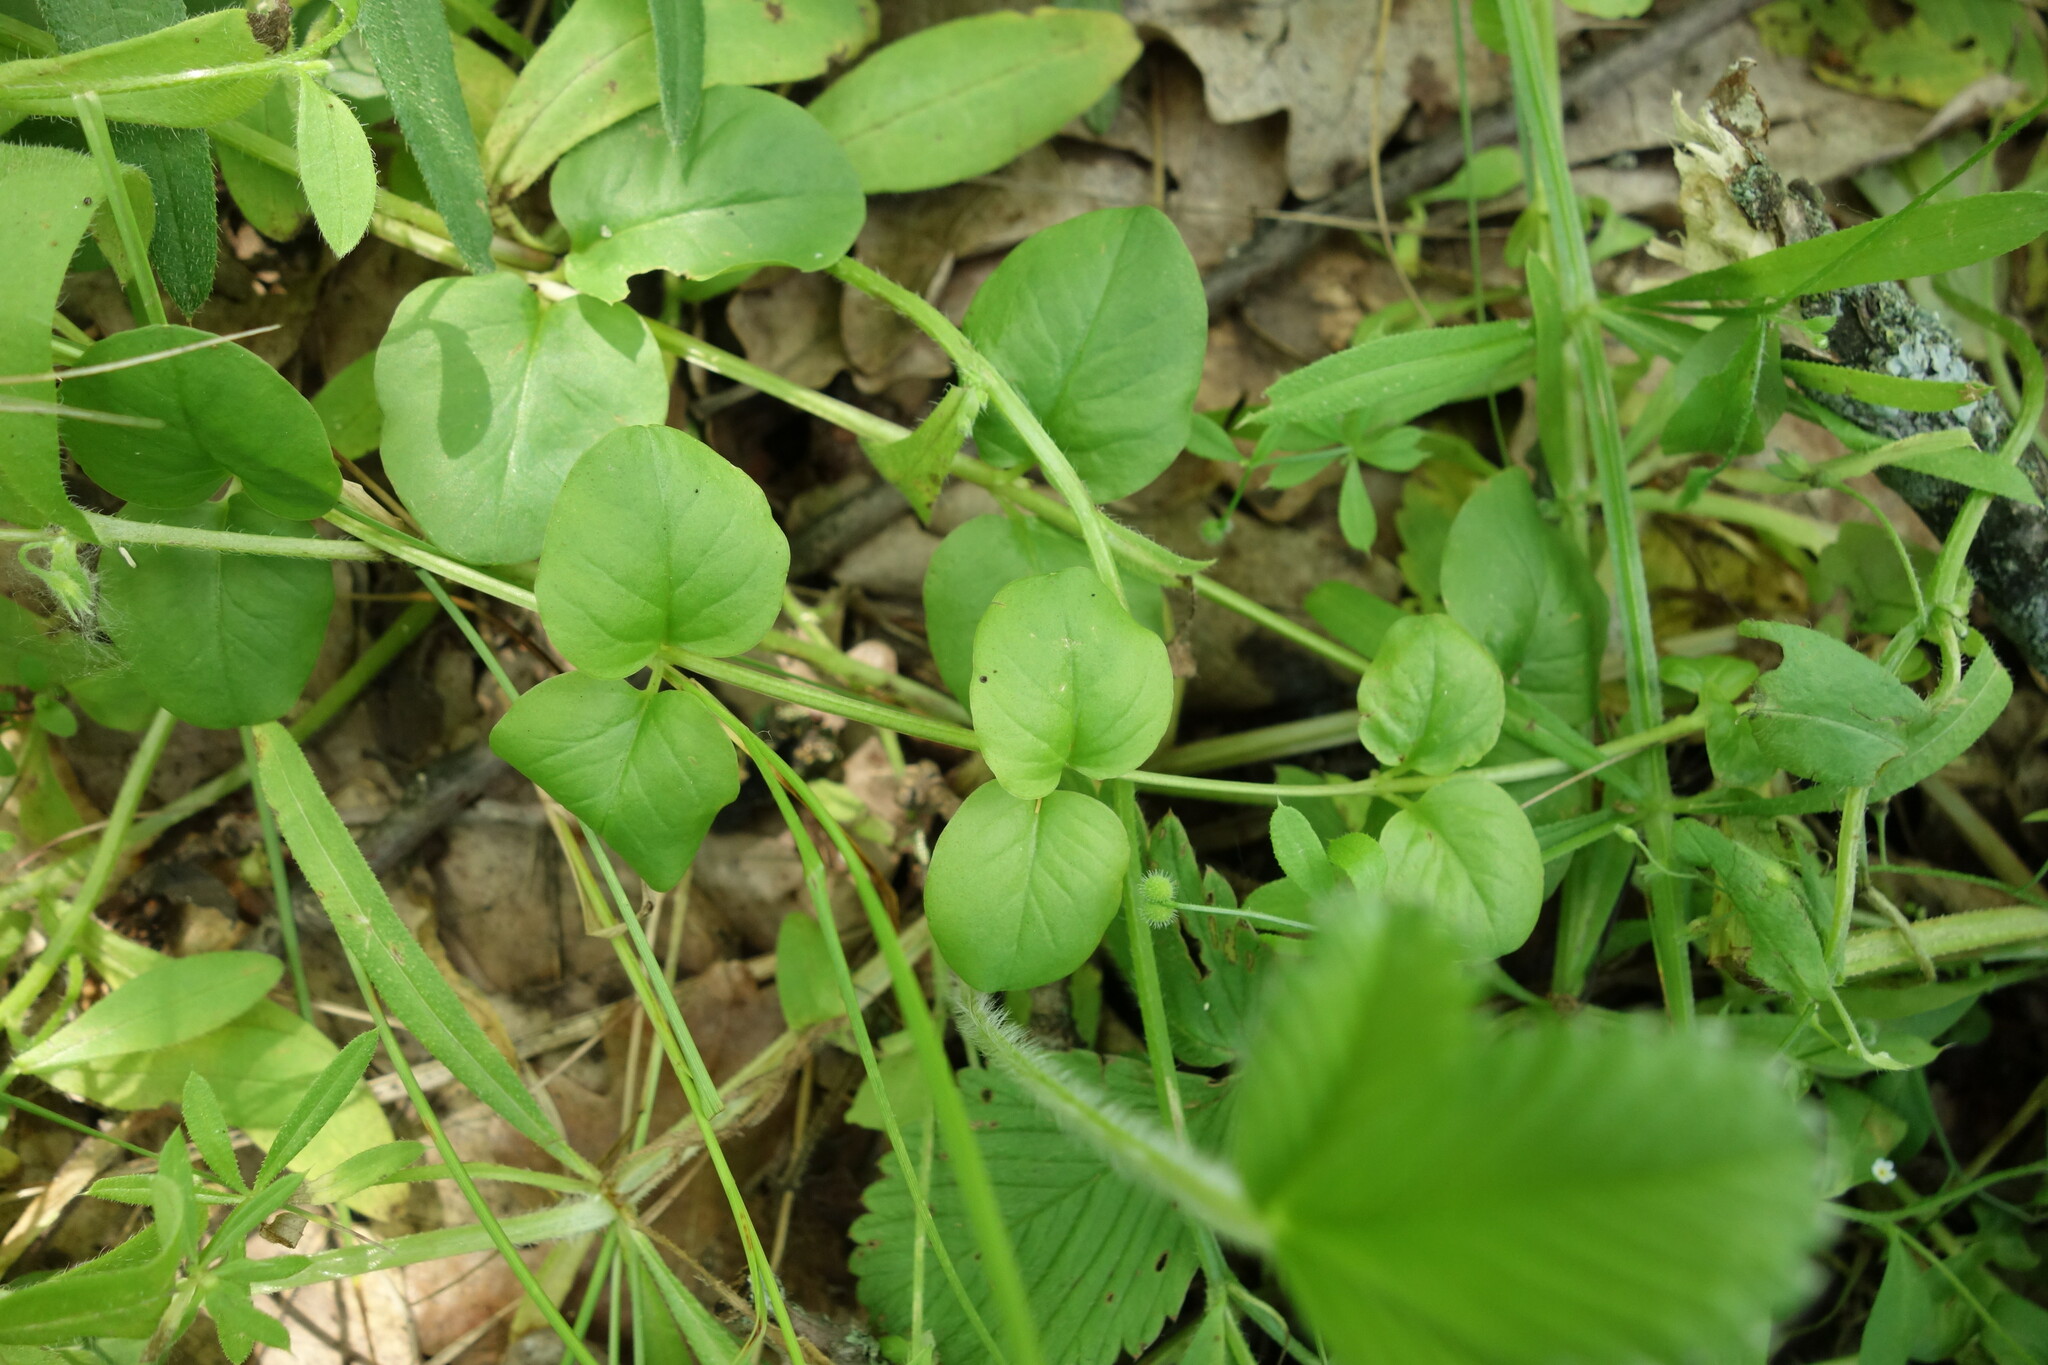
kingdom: Plantae
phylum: Tracheophyta
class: Magnoliopsida
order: Ericales
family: Primulaceae
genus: Lysimachia
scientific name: Lysimachia nummularia
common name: Moneywort
